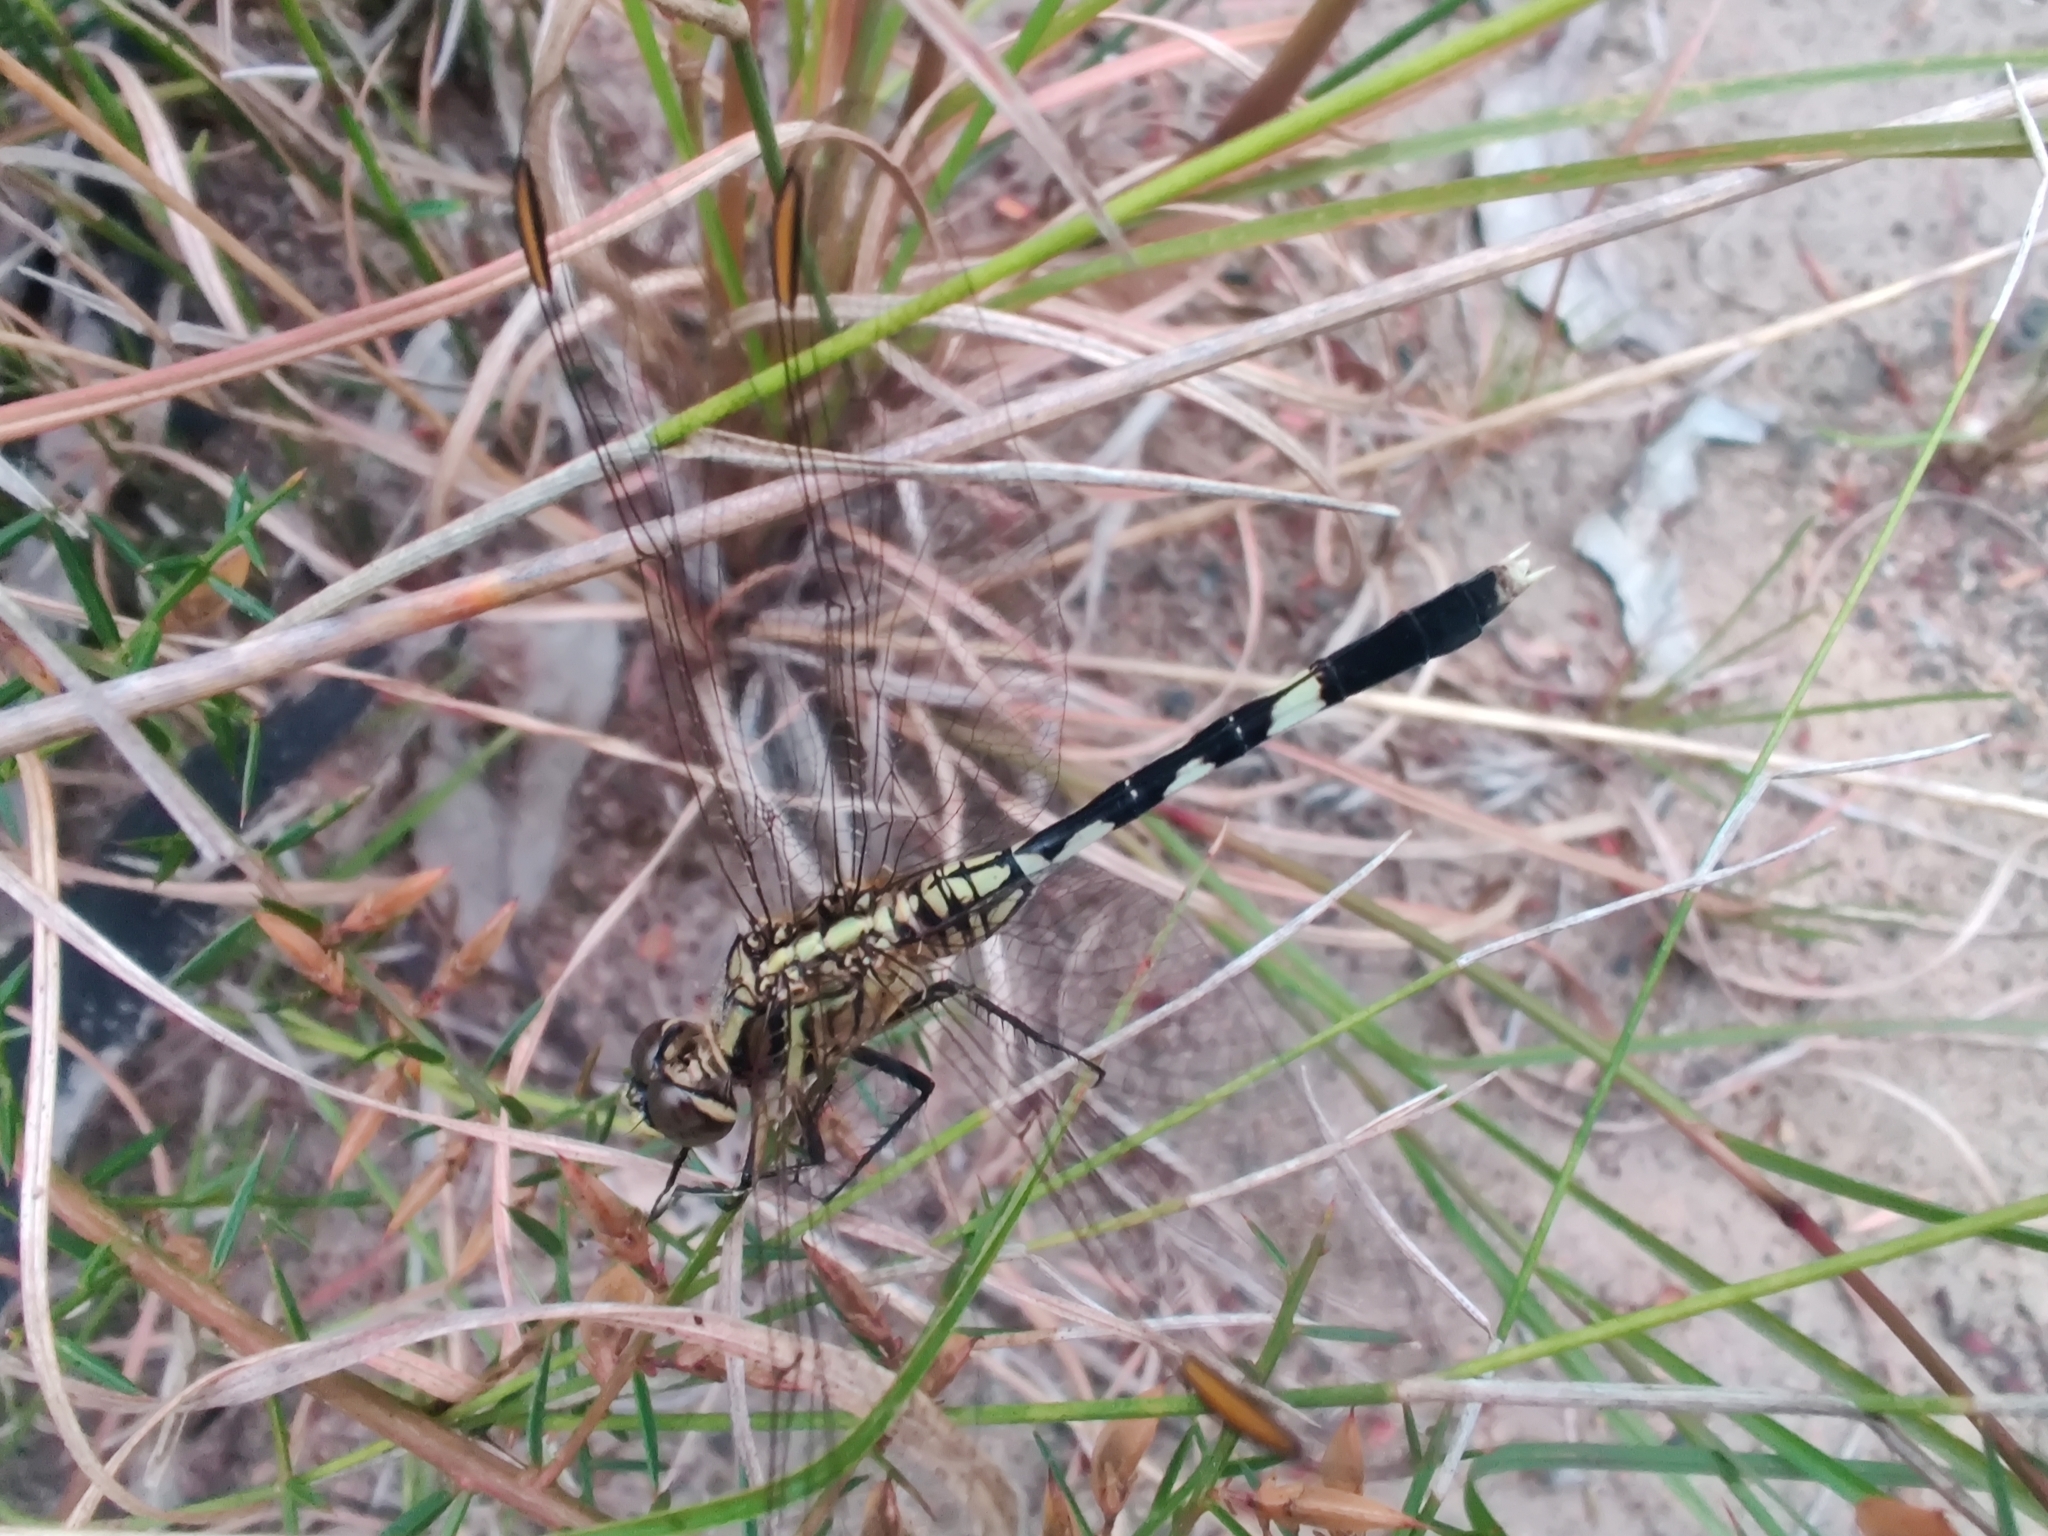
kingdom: Animalia
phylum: Arthropoda
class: Insecta
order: Odonata
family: Libellulidae
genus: Orthetrum
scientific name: Orthetrum sabina
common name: Slender skimmer
